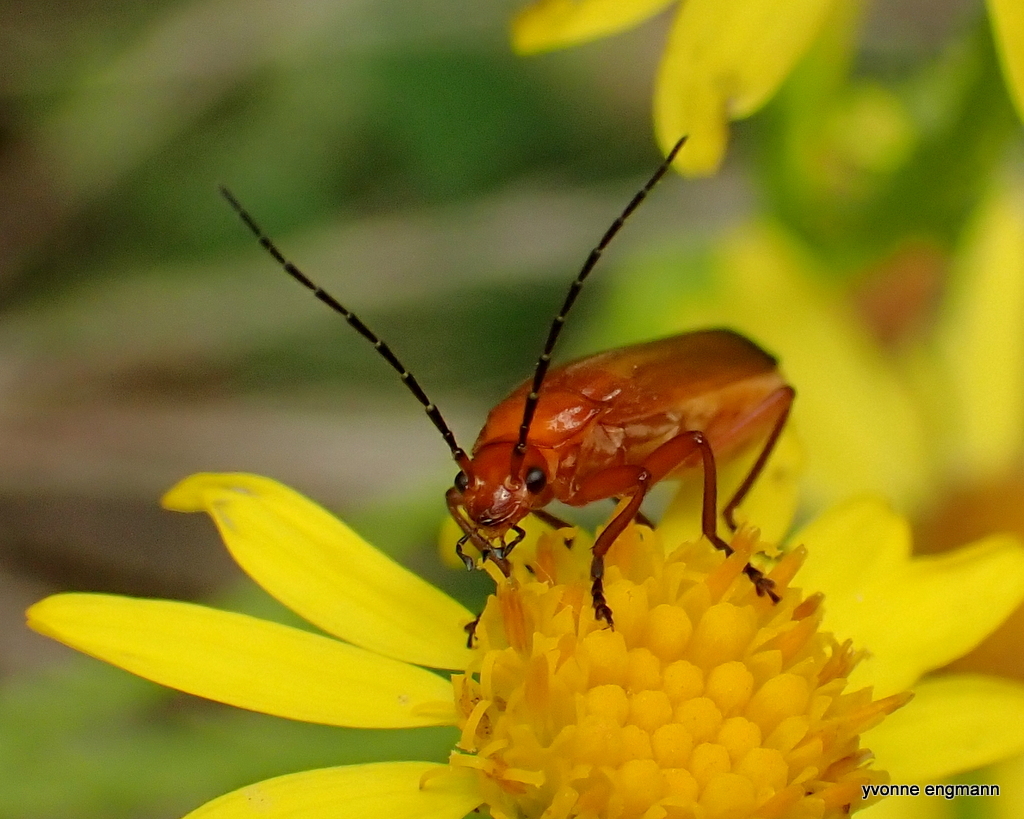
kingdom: Animalia
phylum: Arthropoda
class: Insecta
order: Coleoptera
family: Cantharidae
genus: Rhagonycha
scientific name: Rhagonycha fulva
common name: Common red soldier beetle
